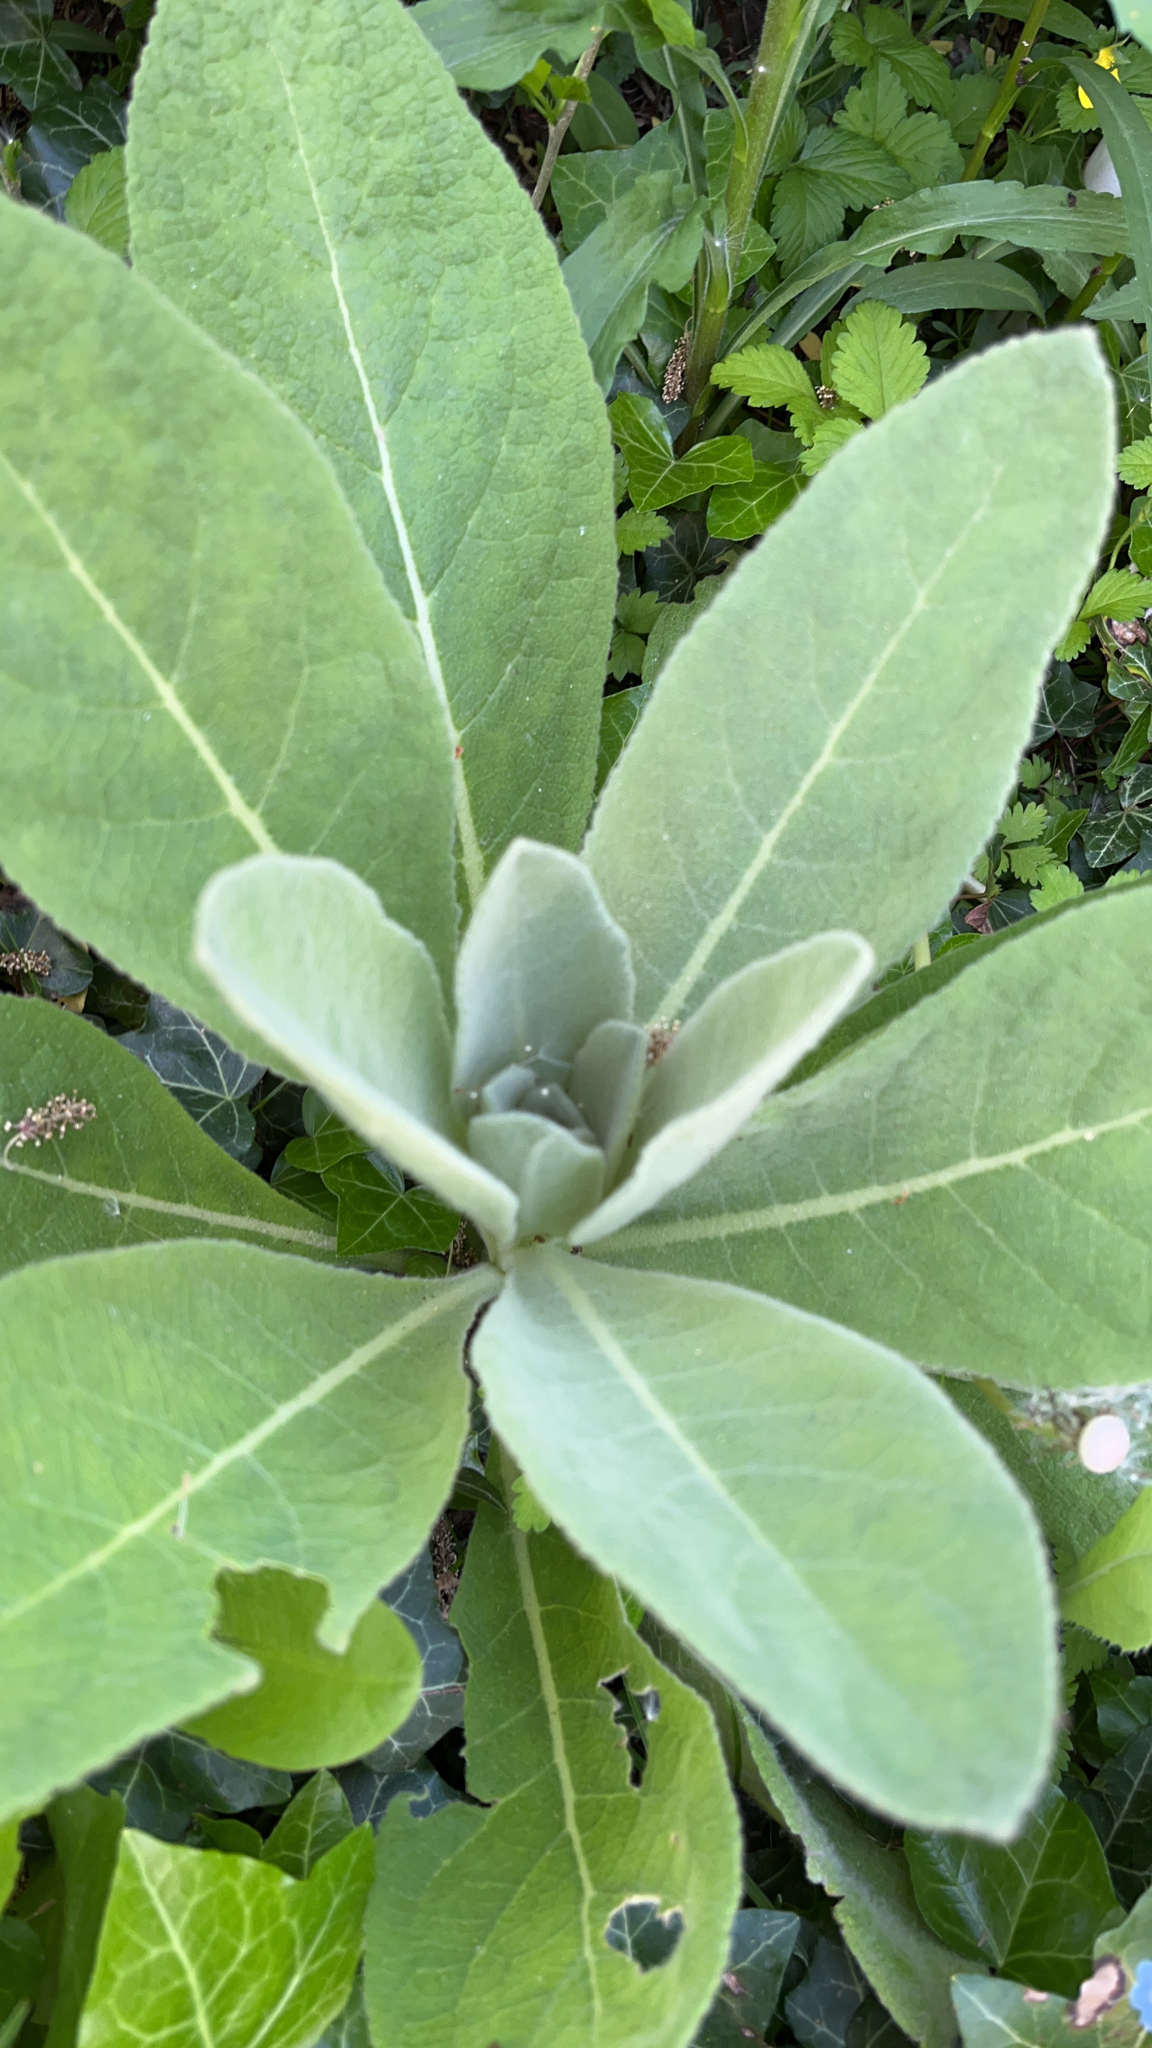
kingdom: Plantae
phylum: Tracheophyta
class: Magnoliopsida
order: Lamiales
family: Scrophulariaceae
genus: Verbascum
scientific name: Verbascum thapsus
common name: Common mullein
